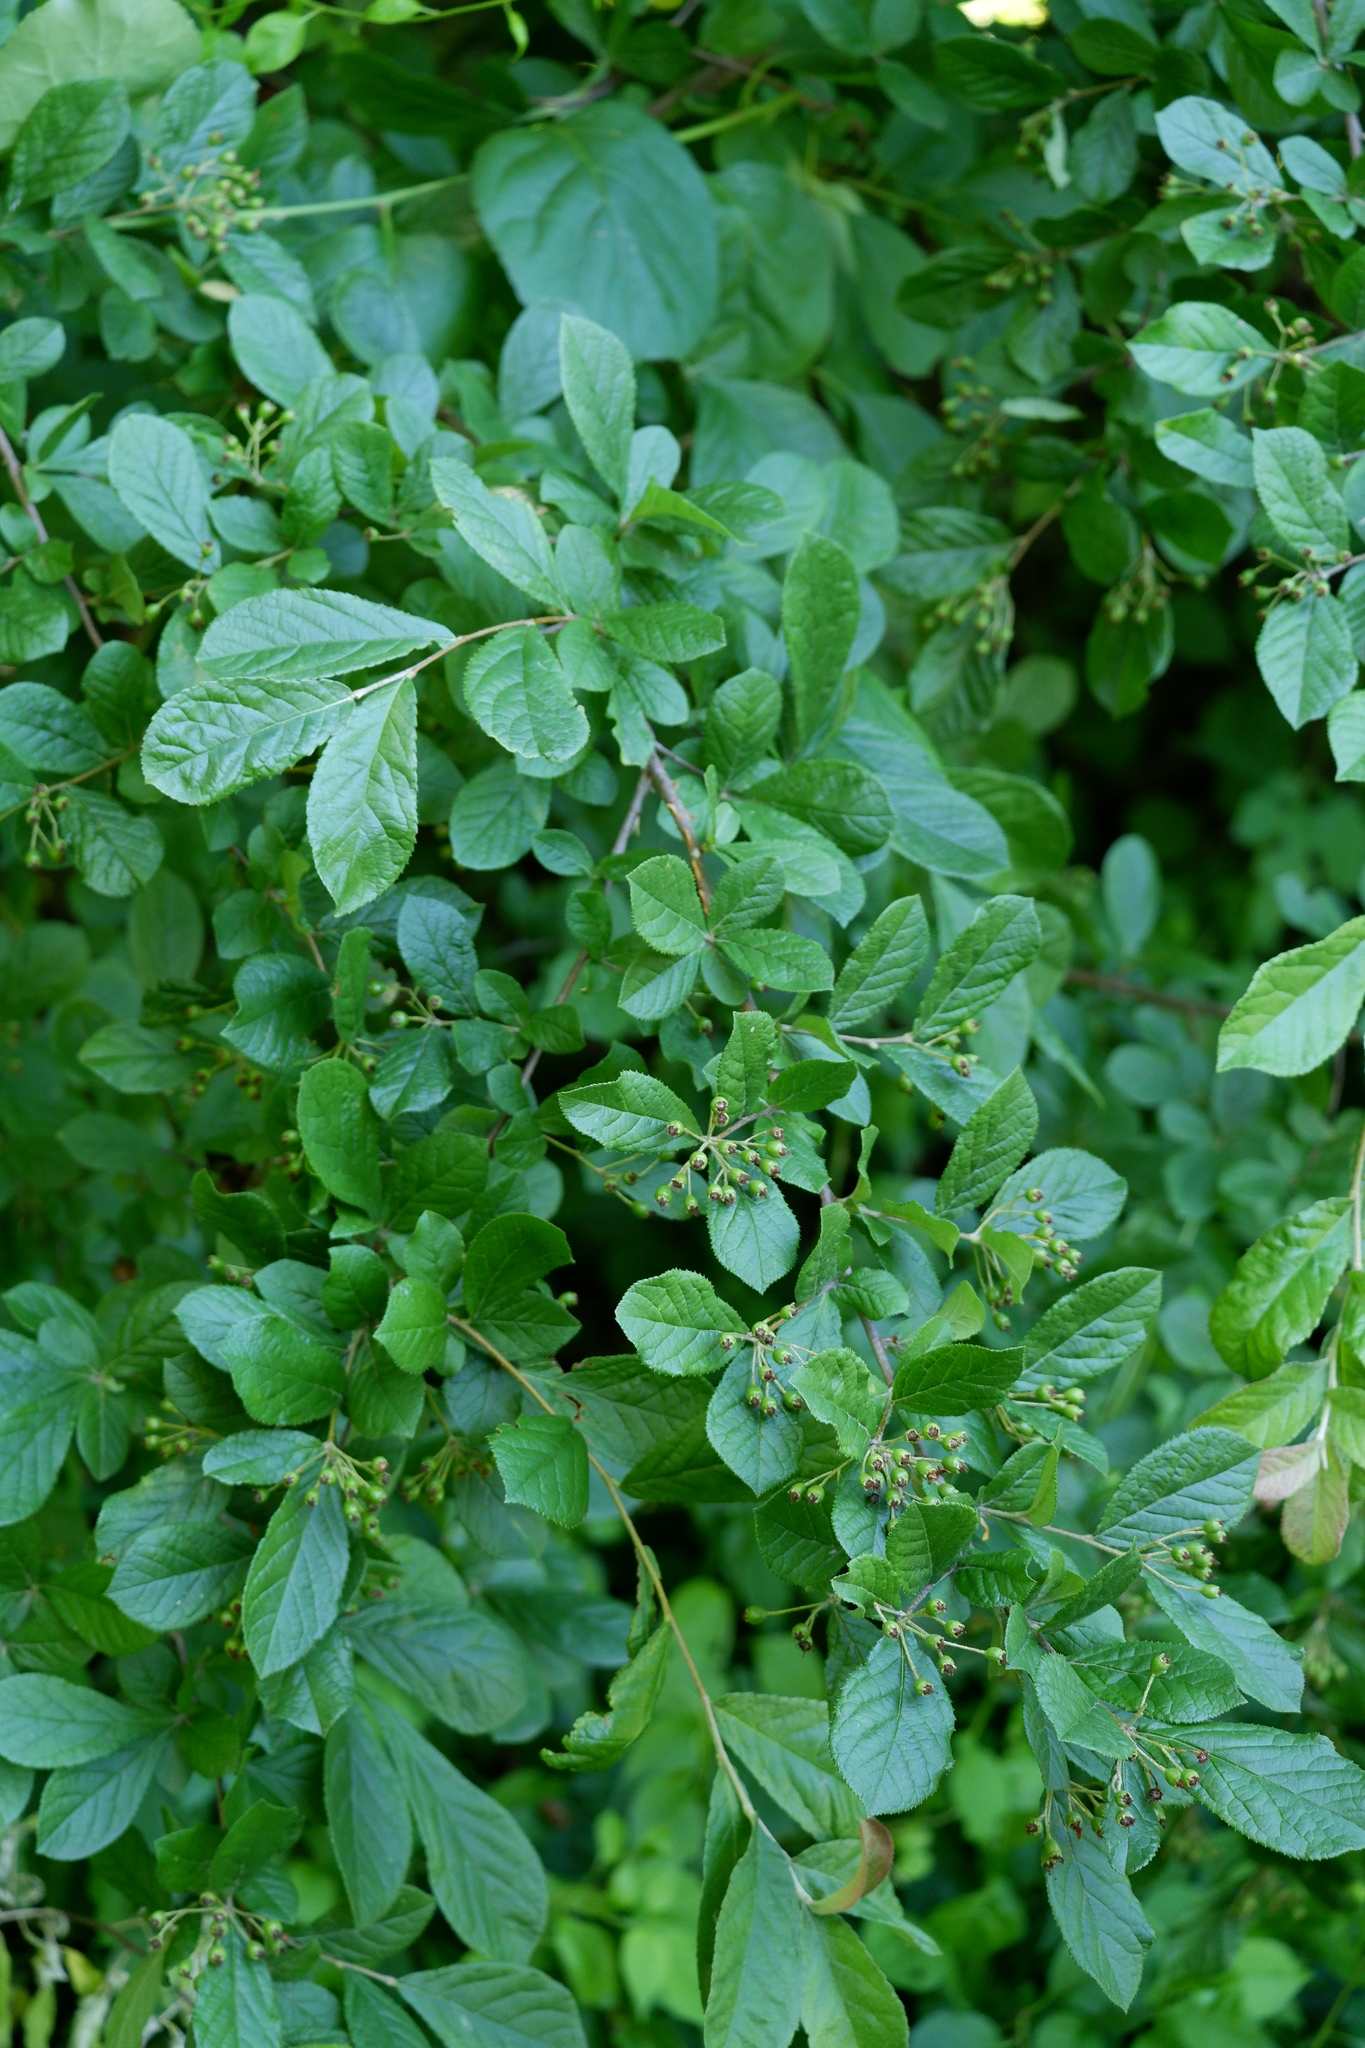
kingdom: Plantae
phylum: Tracheophyta
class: Magnoliopsida
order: Rosales
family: Rosaceae
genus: Pourthiaea
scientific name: Pourthiaea villosa
